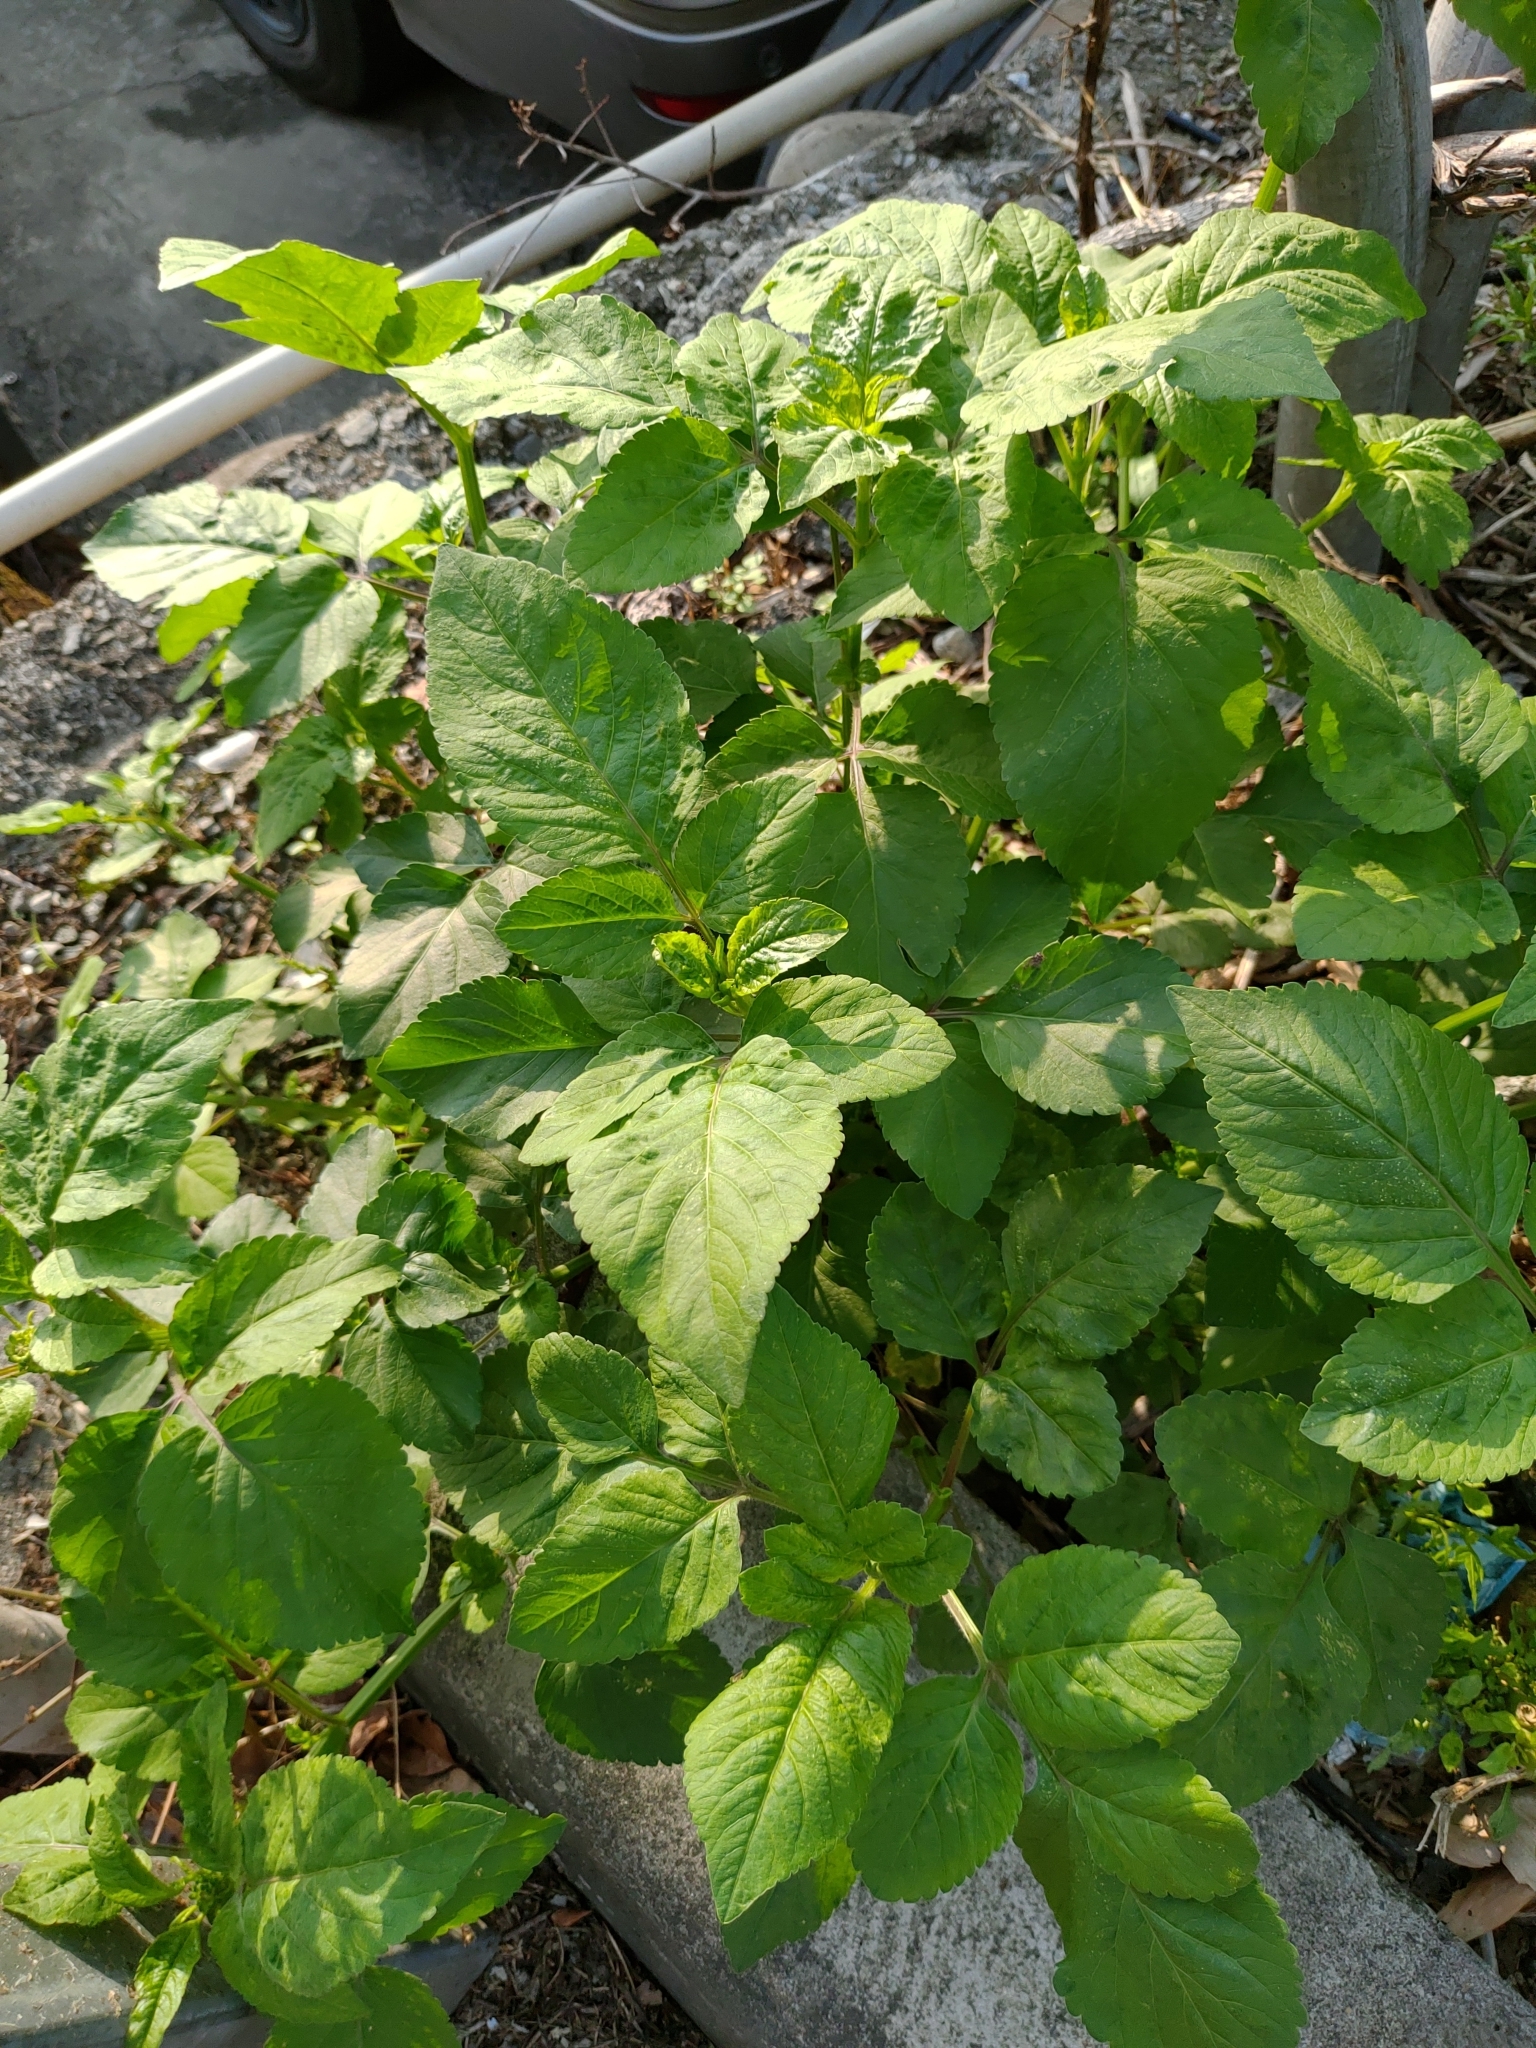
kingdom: Plantae
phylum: Tracheophyta
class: Magnoliopsida
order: Asterales
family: Asteraceae
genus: Bidens
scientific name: Bidens alba
